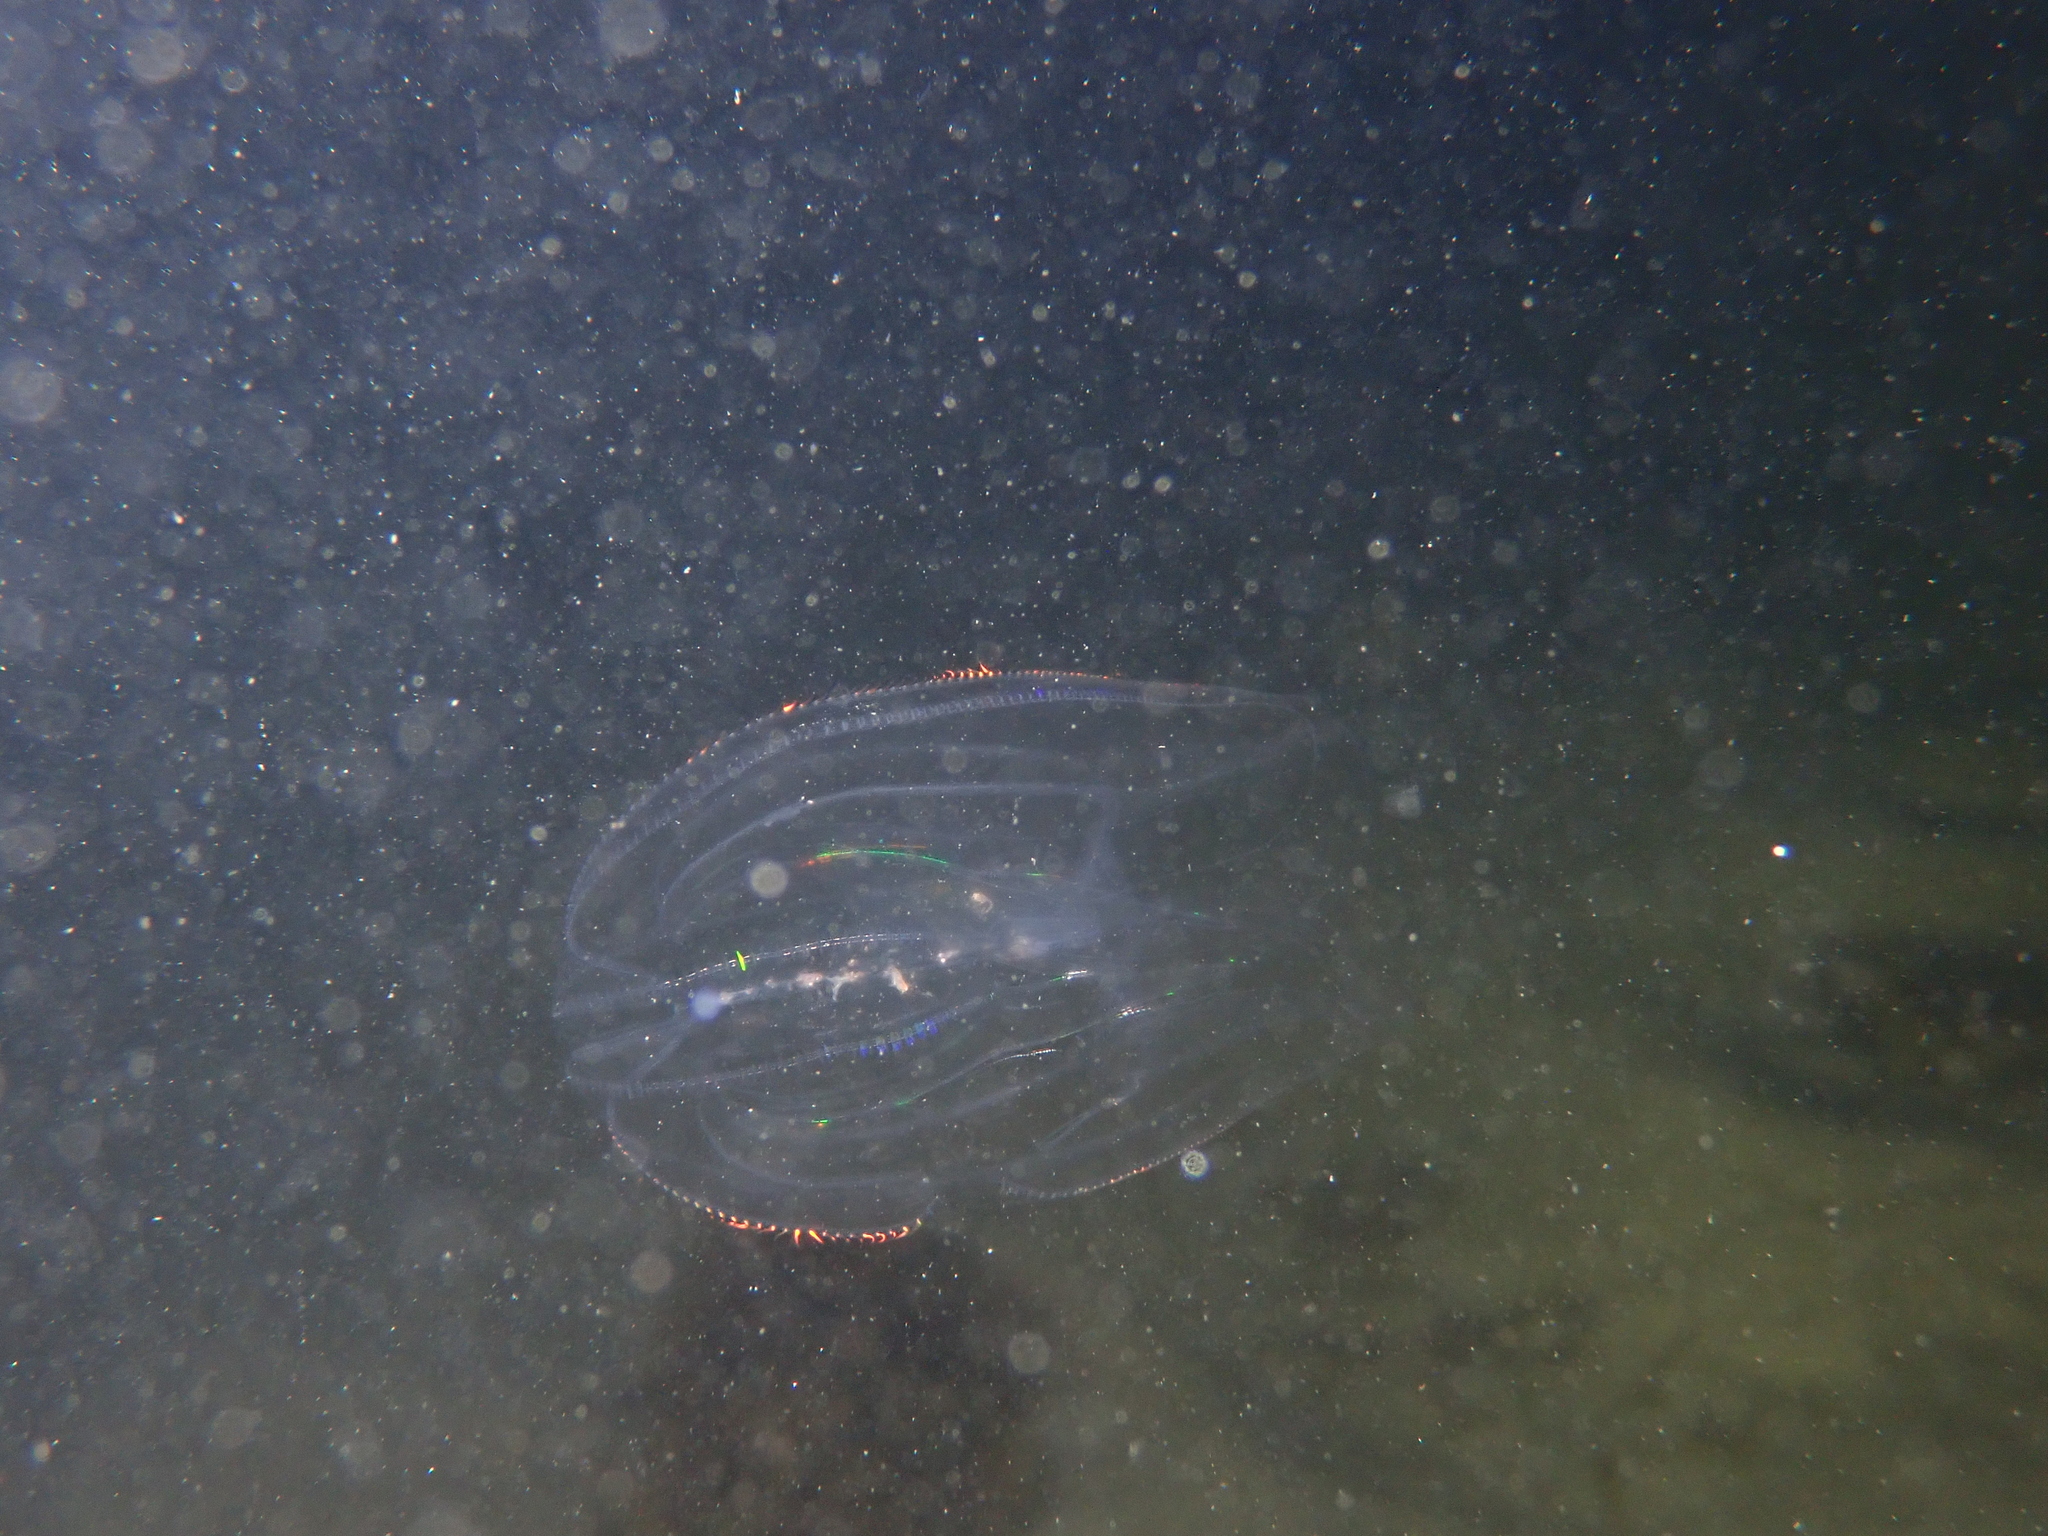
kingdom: Animalia
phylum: Ctenophora
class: Tentaculata
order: Lobata
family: Bolinopsidae
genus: Mnemiopsis
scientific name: Mnemiopsis leidyi
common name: American comb jelly
